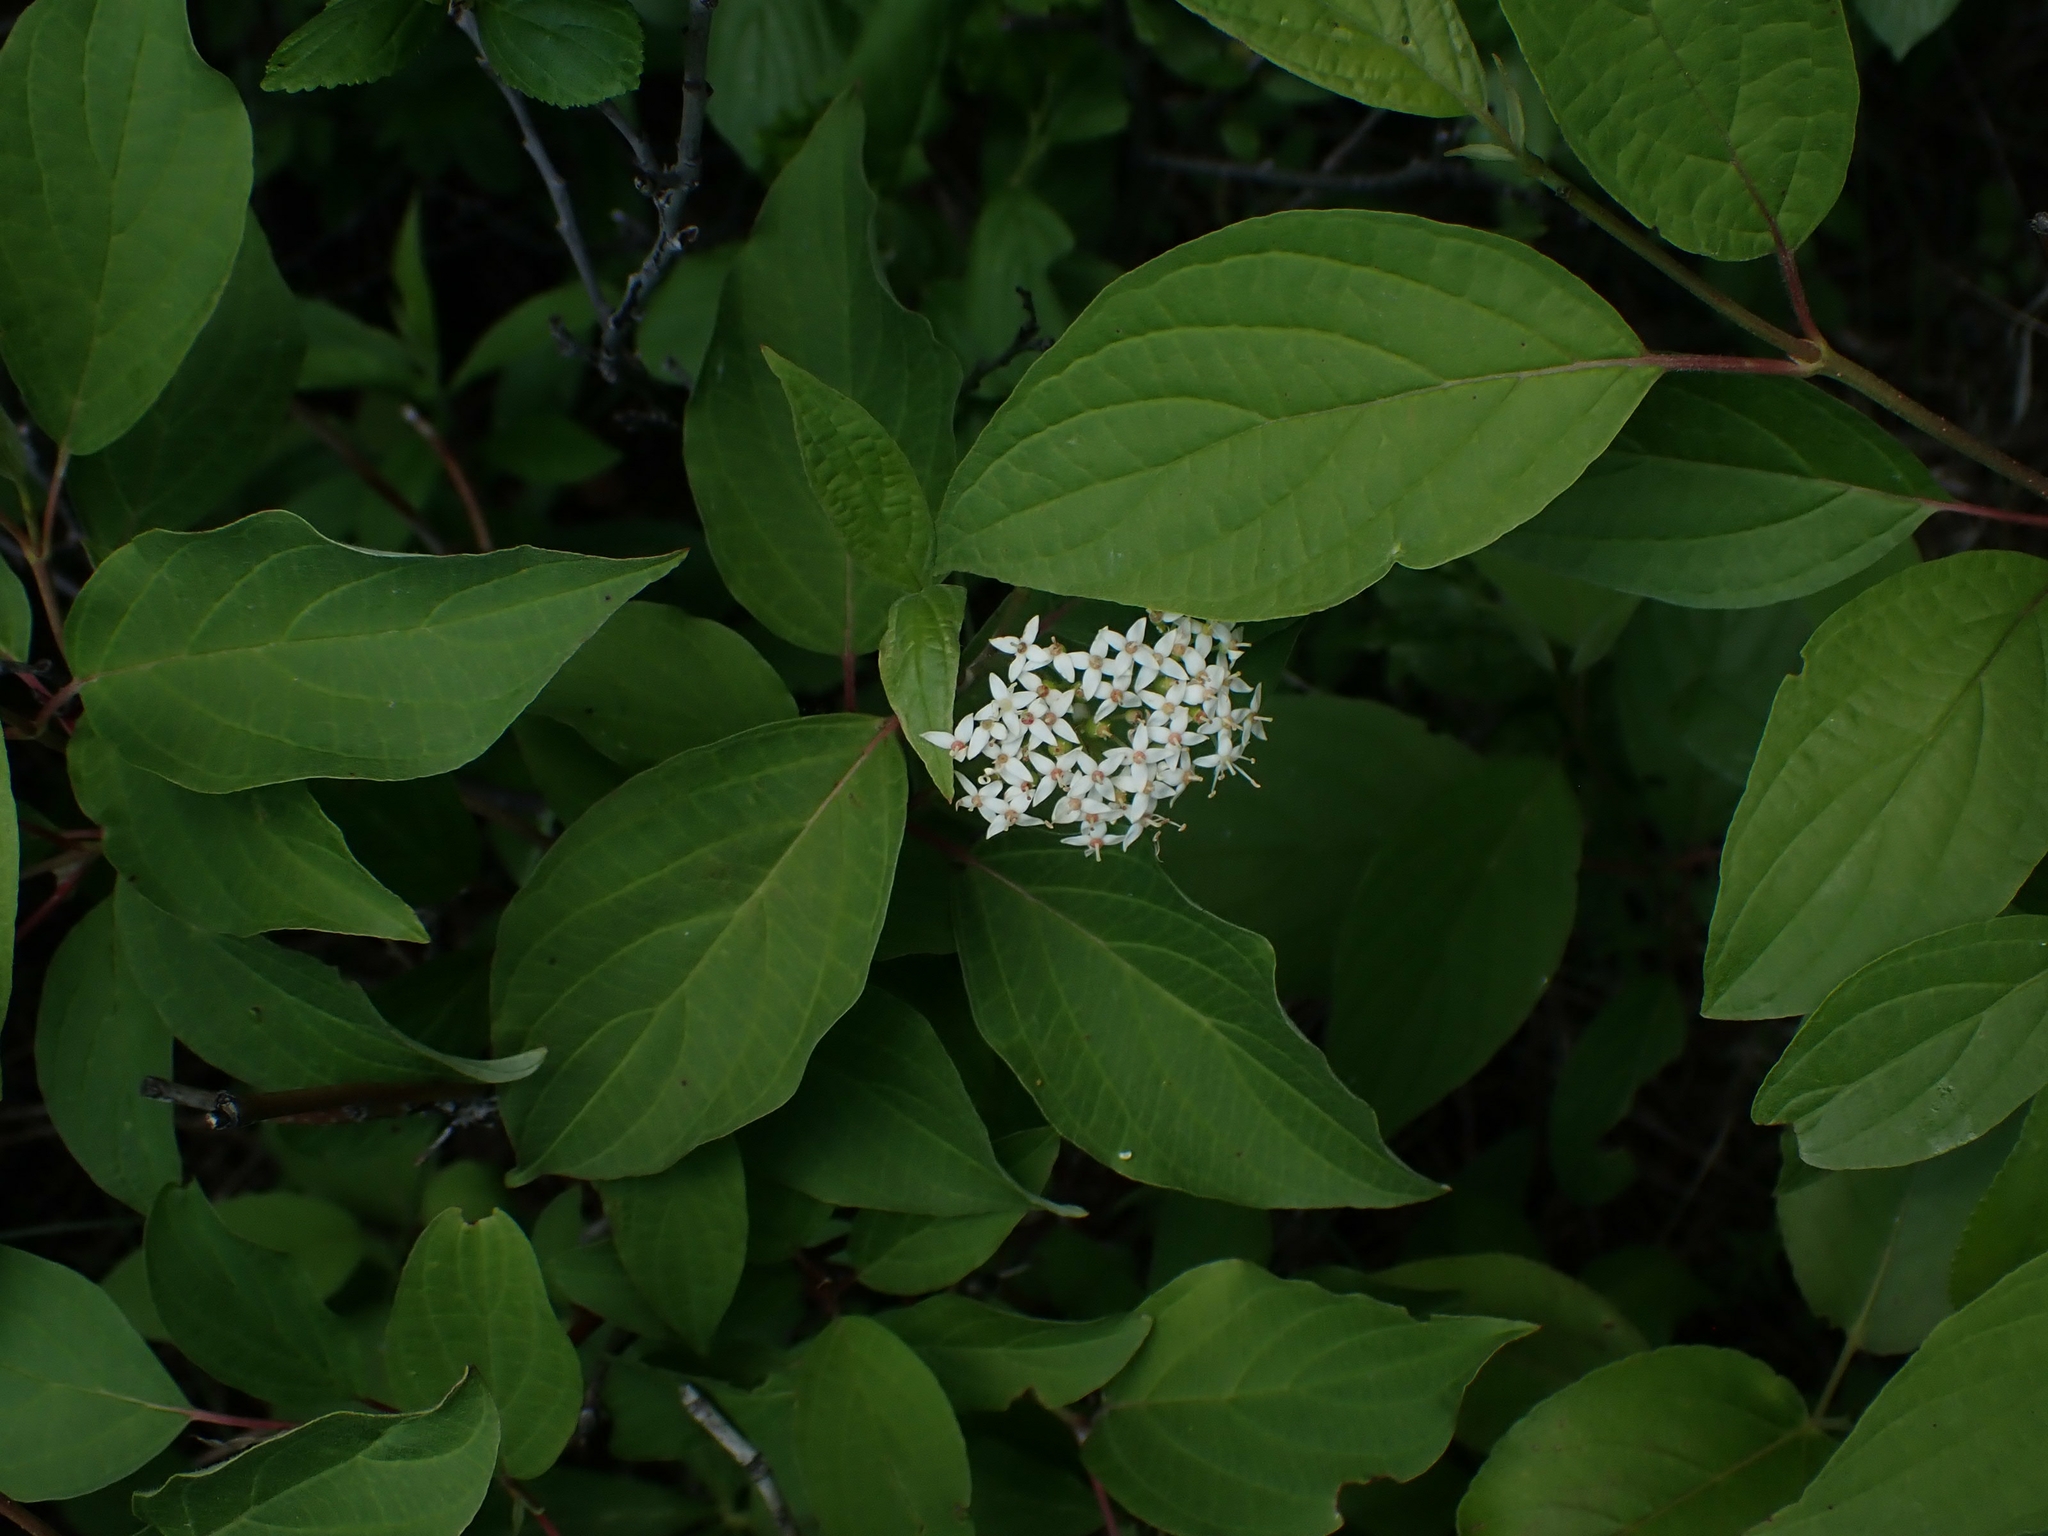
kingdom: Plantae
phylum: Tracheophyta
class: Magnoliopsida
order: Cornales
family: Cornaceae
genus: Cornus
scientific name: Cornus sericea
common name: Red-osier dogwood
